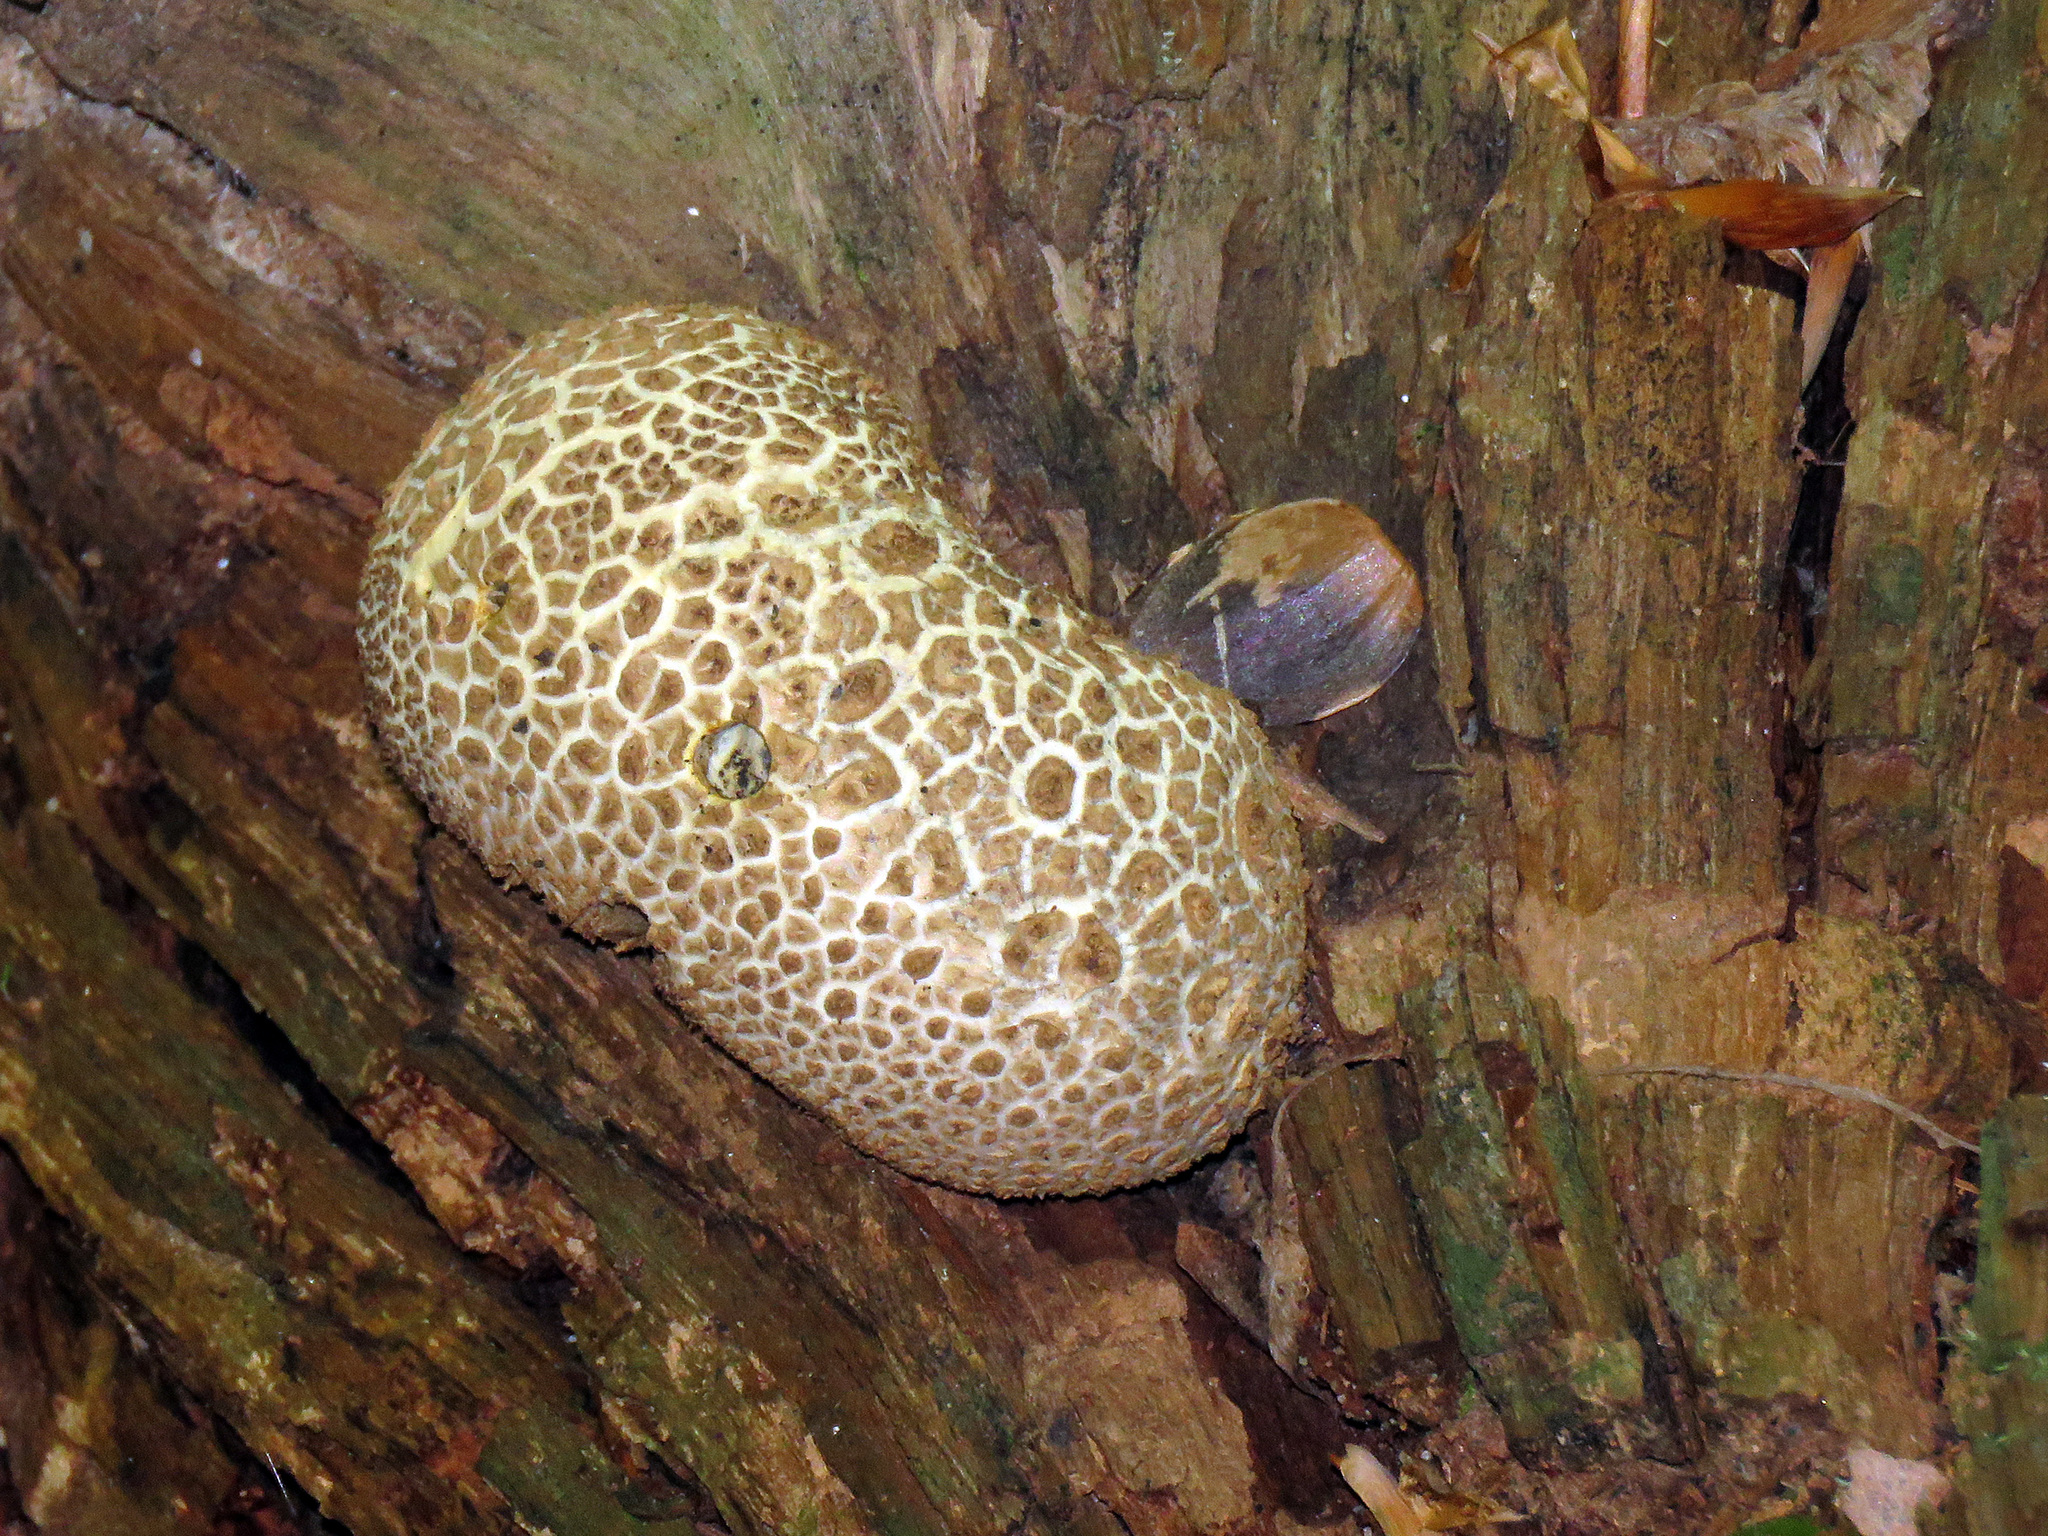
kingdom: Fungi
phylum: Basidiomycota
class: Agaricomycetes
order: Boletales
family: Sclerodermataceae
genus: Scleroderma
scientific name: Scleroderma citrinum
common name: Common earthball
